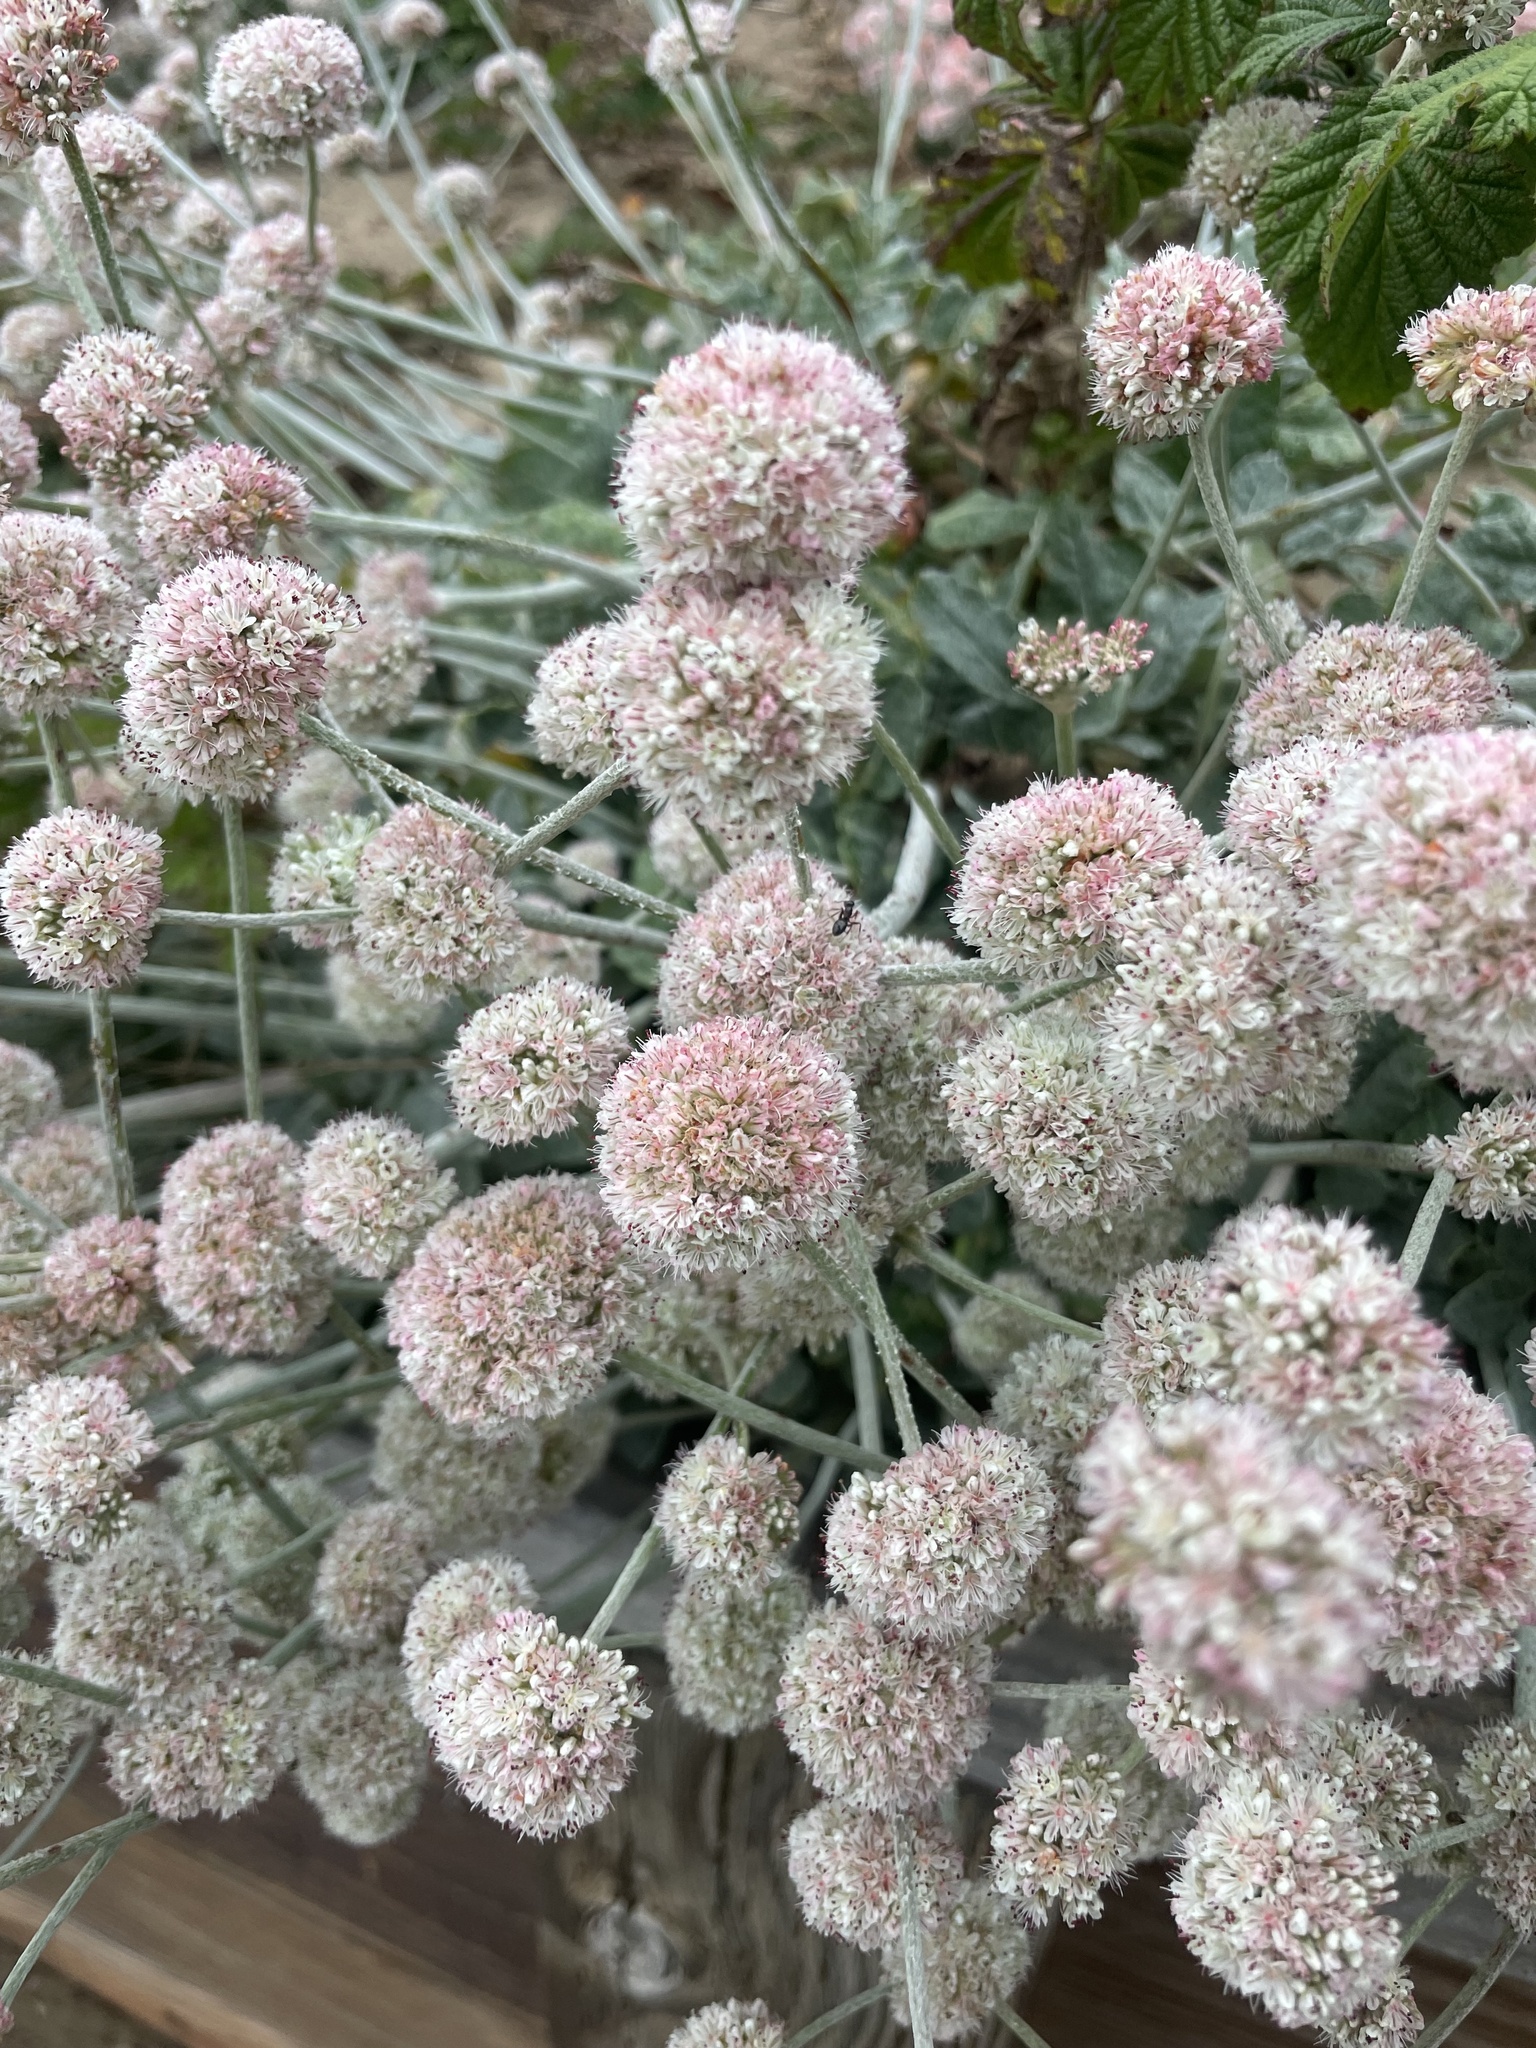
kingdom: Plantae
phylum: Tracheophyta
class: Magnoliopsida
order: Caryophyllales
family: Polygonaceae
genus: Eriogonum
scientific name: Eriogonum latifolium
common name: Seaside wild buckwheat
